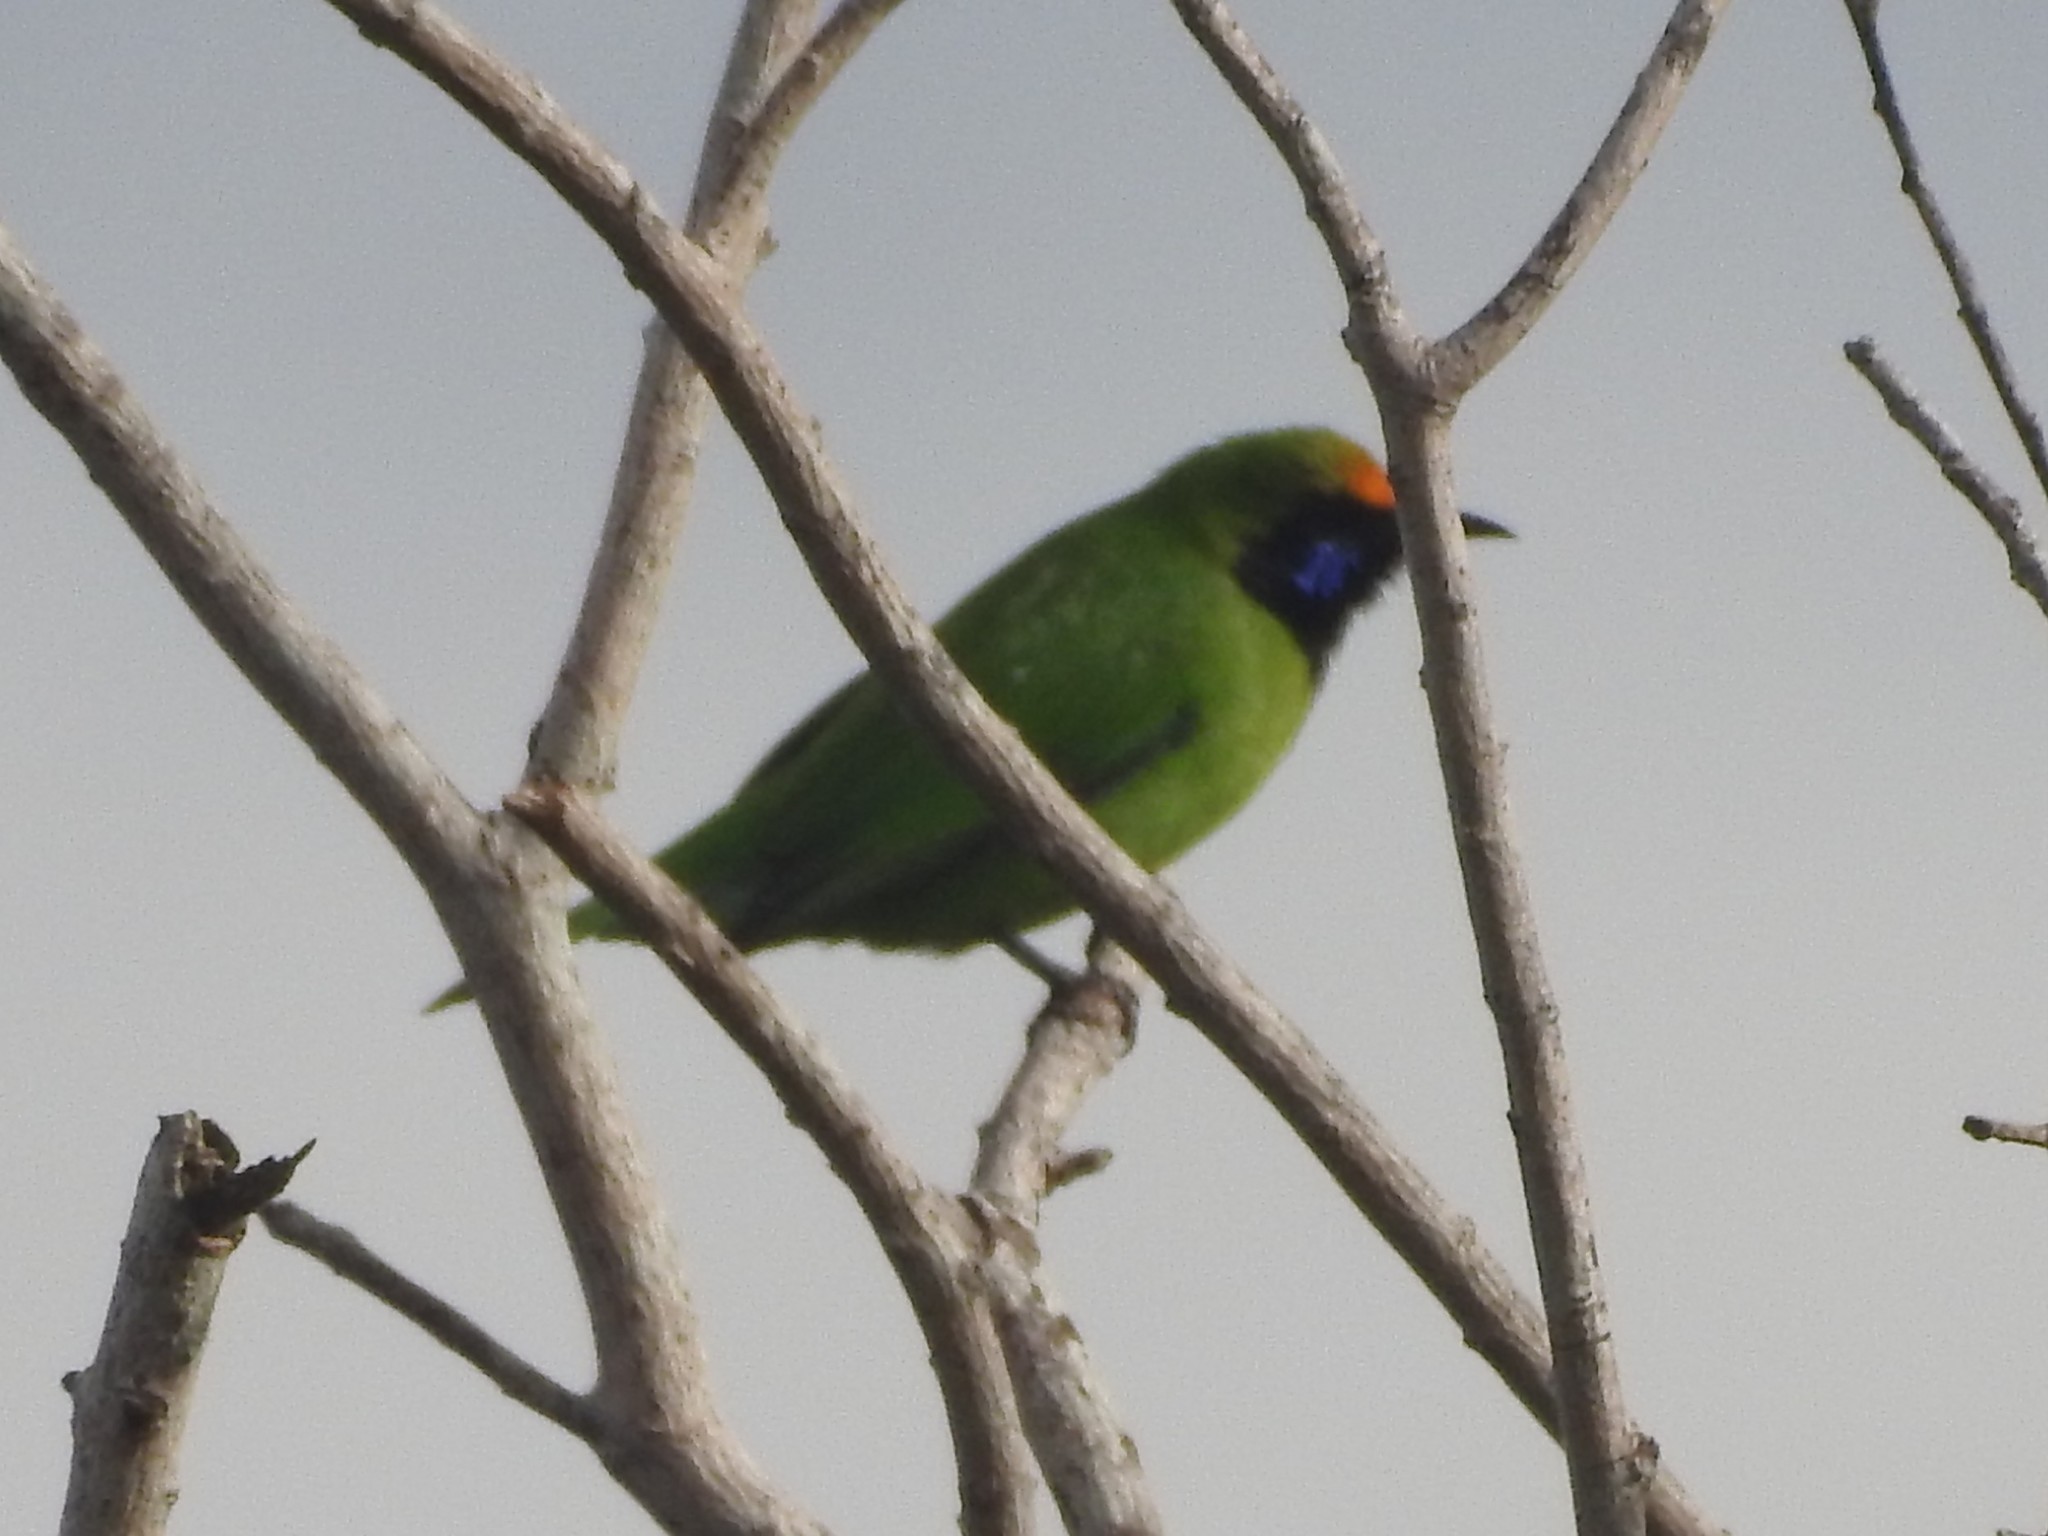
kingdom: Animalia
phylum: Chordata
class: Aves
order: Passeriformes
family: Chloropseidae
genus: Chloropsis
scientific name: Chloropsis aurifrons
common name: Golden-fronted leafbird
